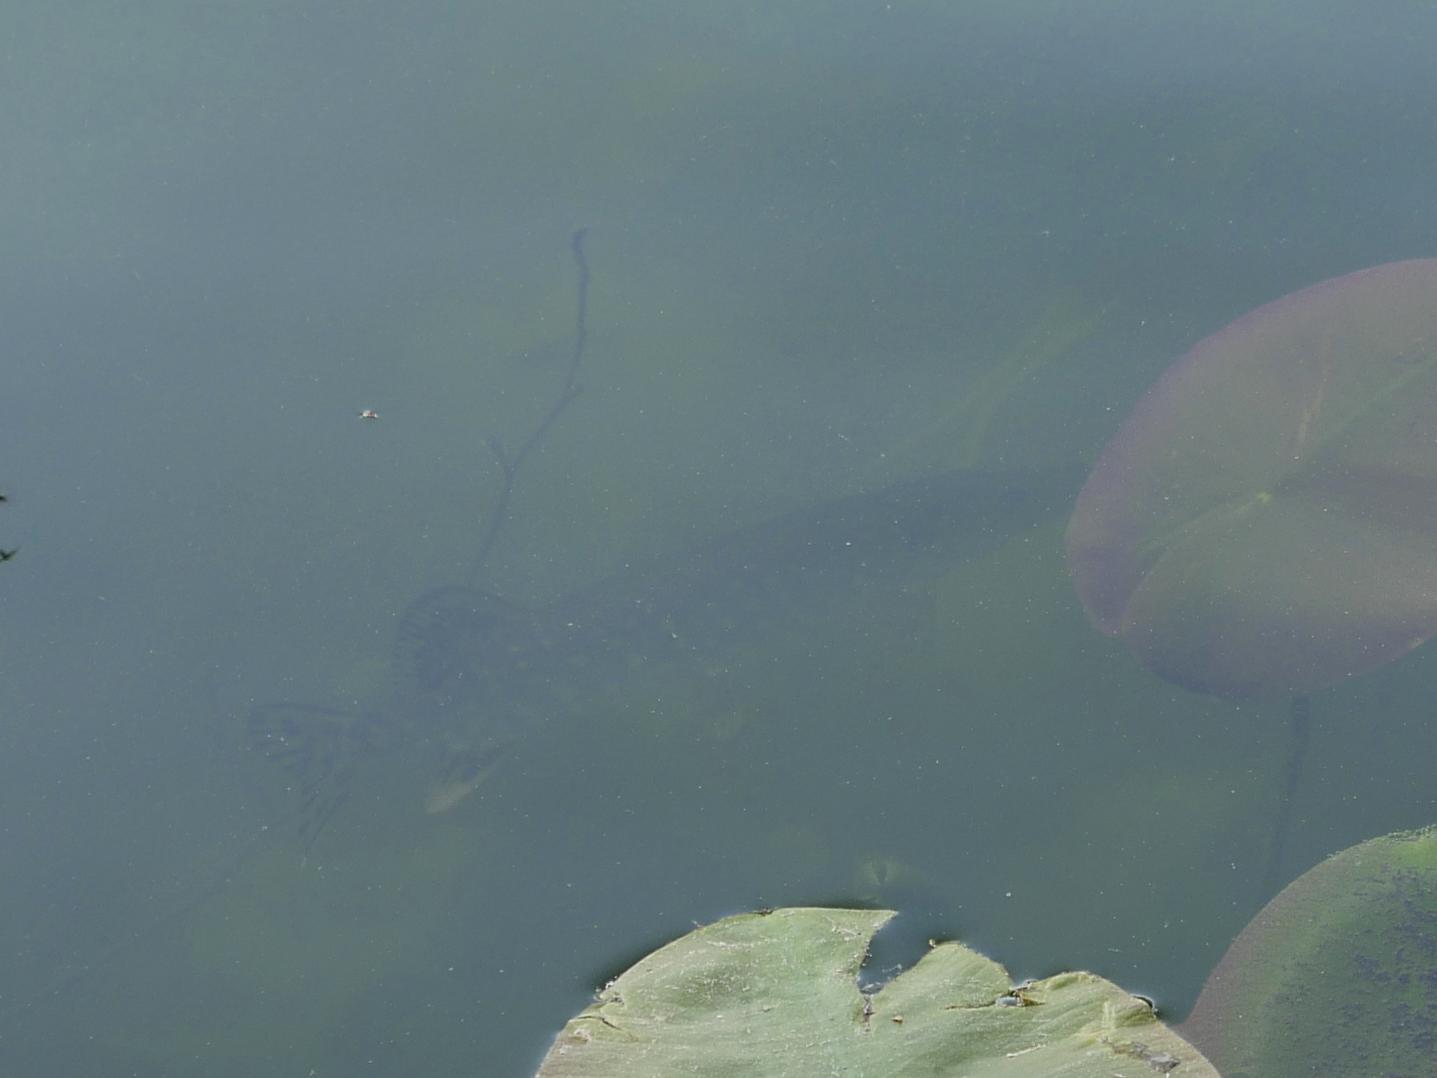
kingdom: Animalia
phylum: Chordata
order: Esociformes
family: Esocidae
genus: Esox
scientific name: Esox lucius
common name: Northern pike
